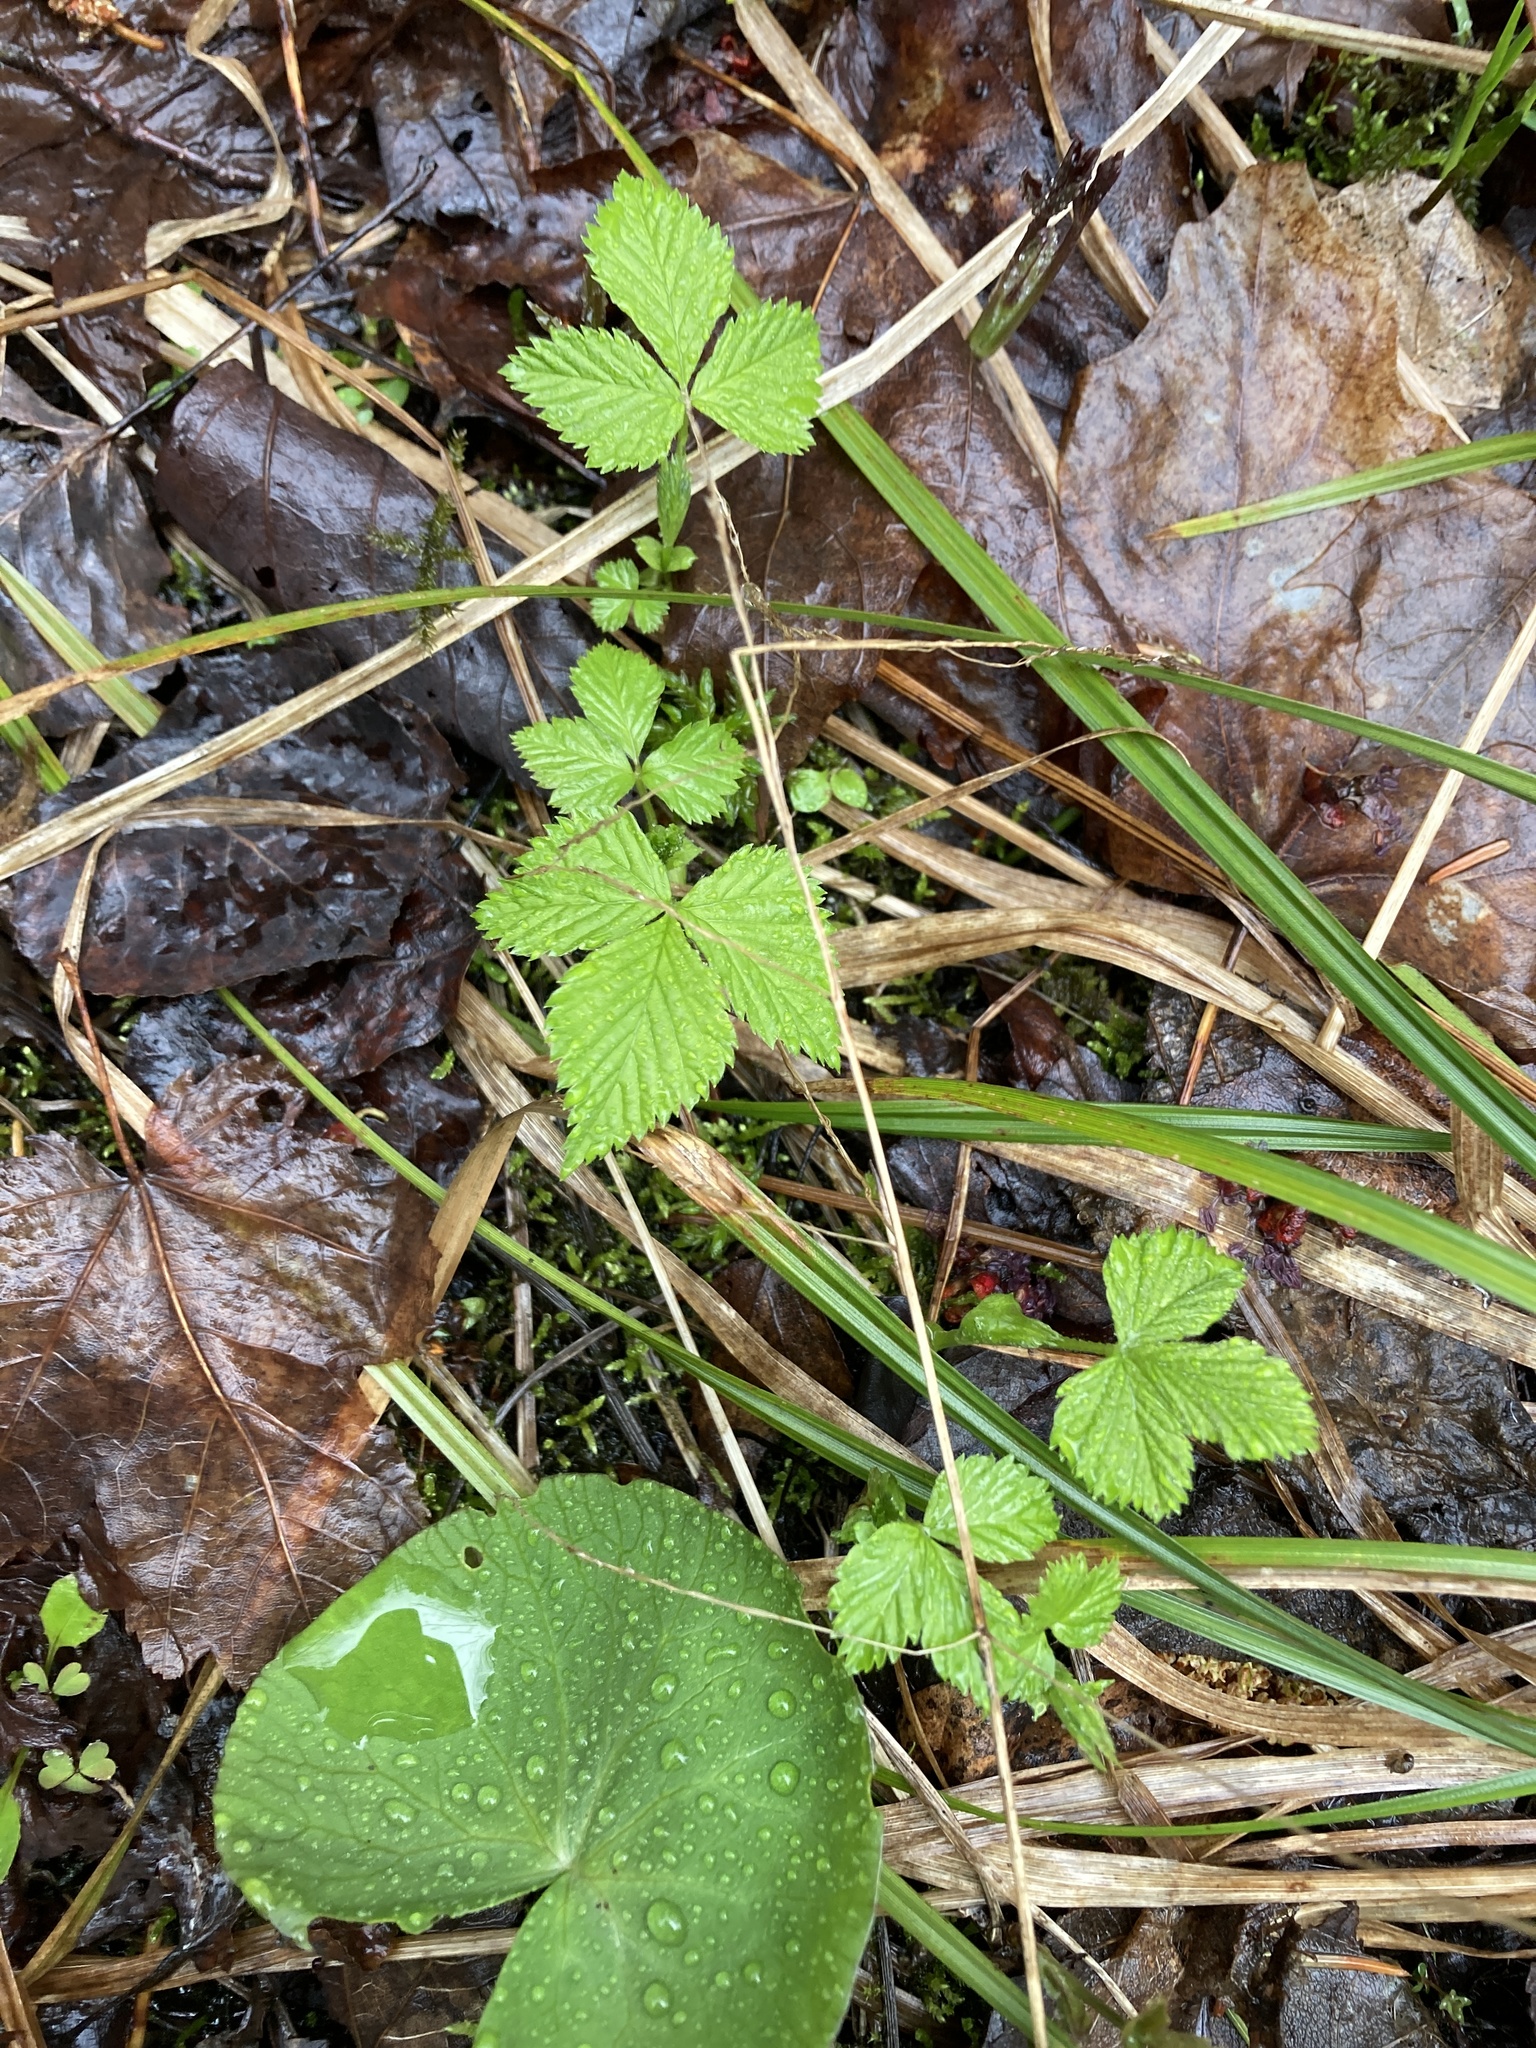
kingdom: Plantae
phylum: Tracheophyta
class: Magnoliopsida
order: Rosales
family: Rosaceae
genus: Rubus
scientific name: Rubus pubescens
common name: Dwarf raspberry
